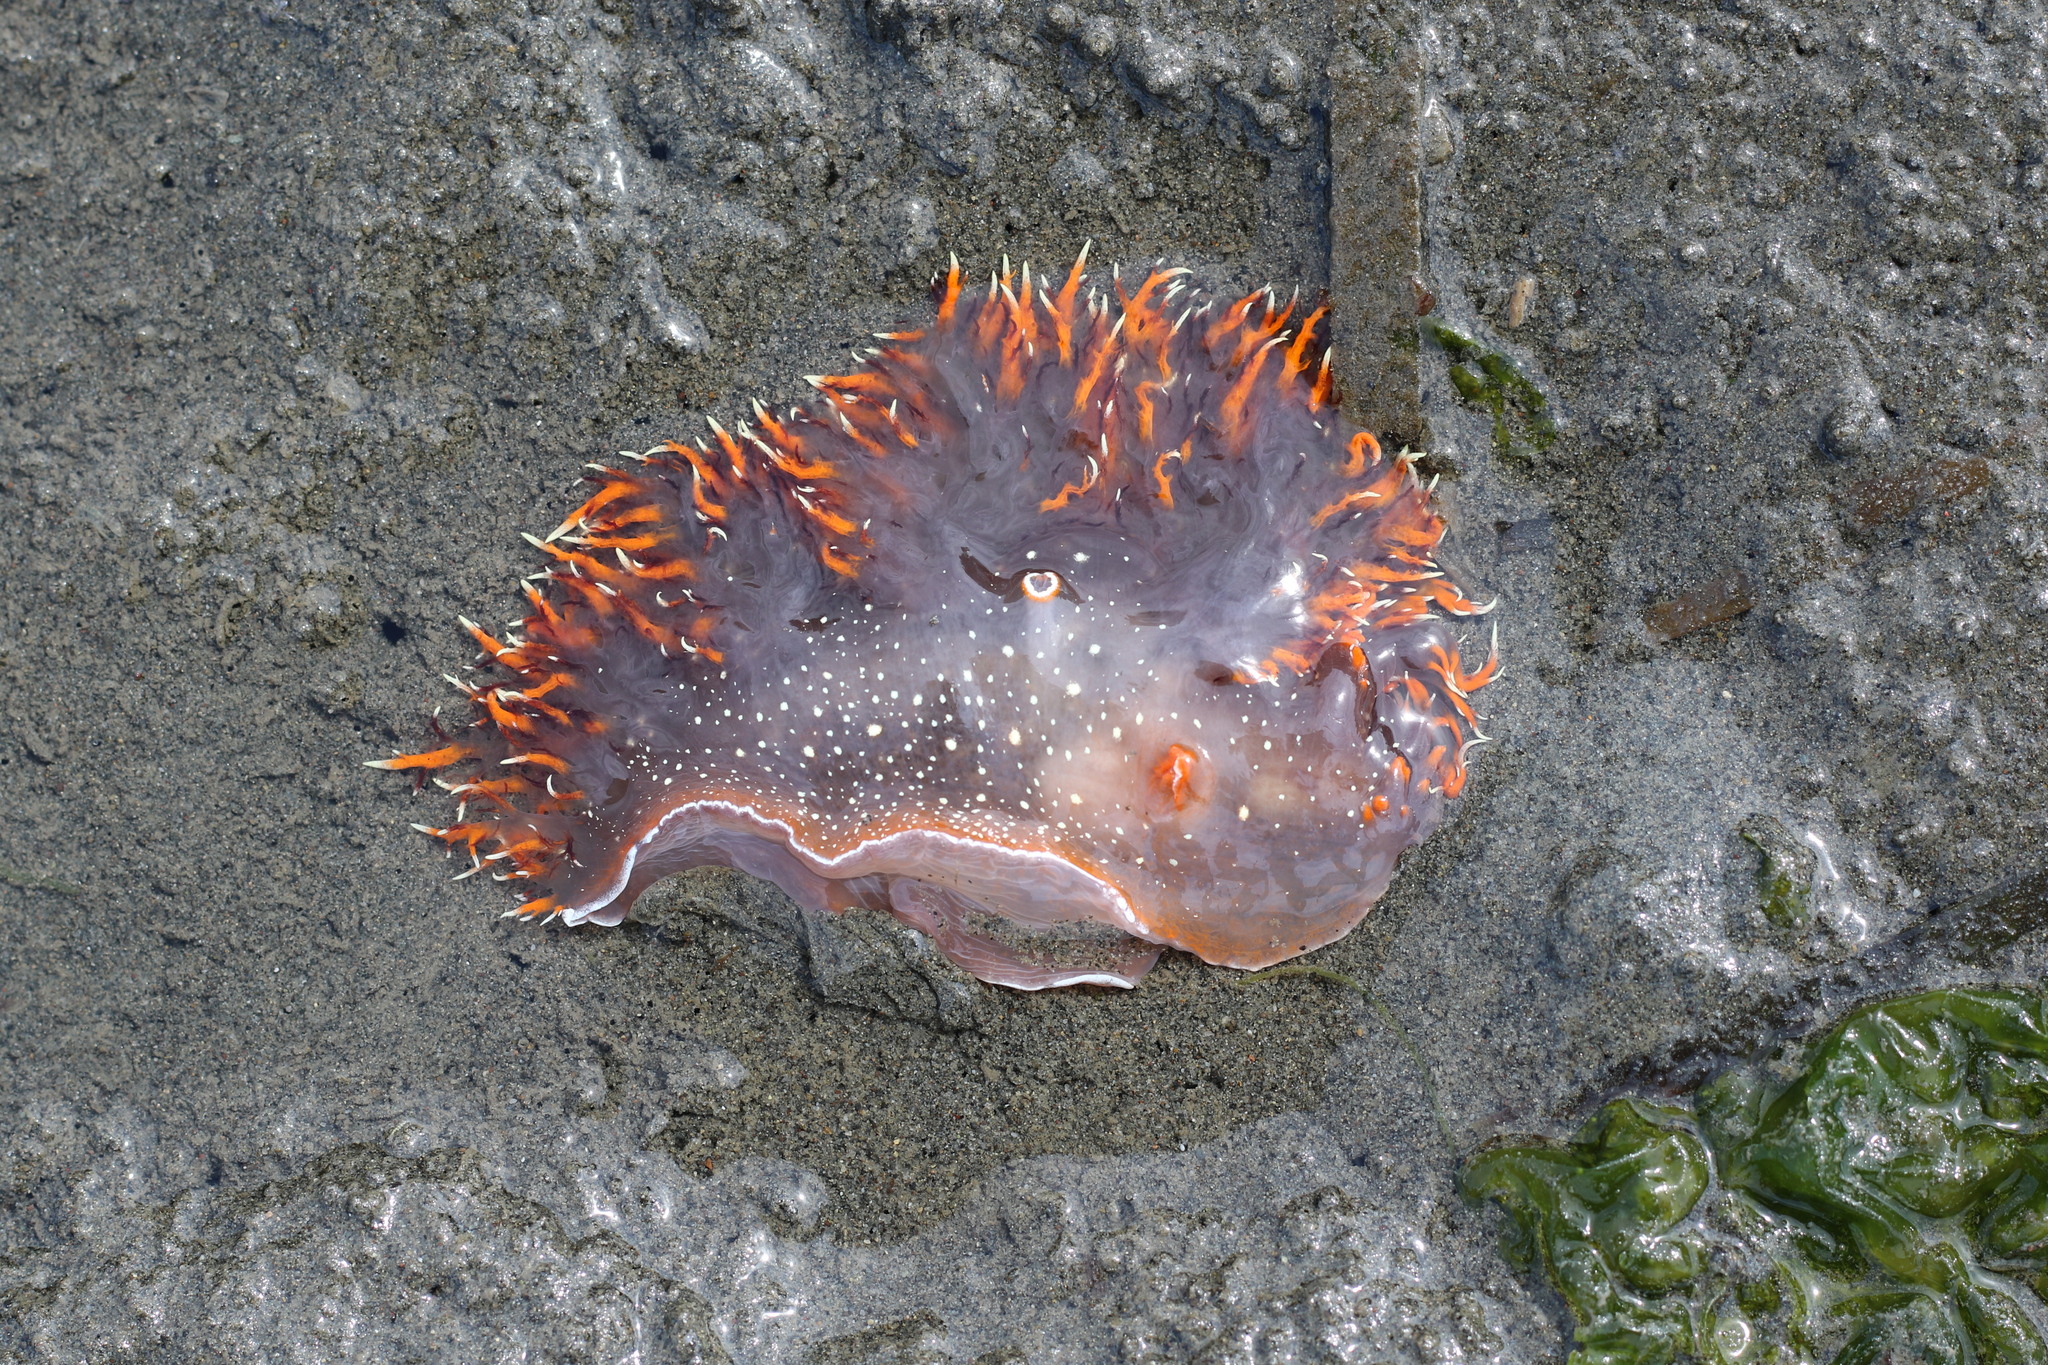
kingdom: Animalia
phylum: Mollusca
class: Gastropoda
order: Nudibranchia
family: Dendronotidae
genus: Dendronotus
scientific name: Dendronotus iris
